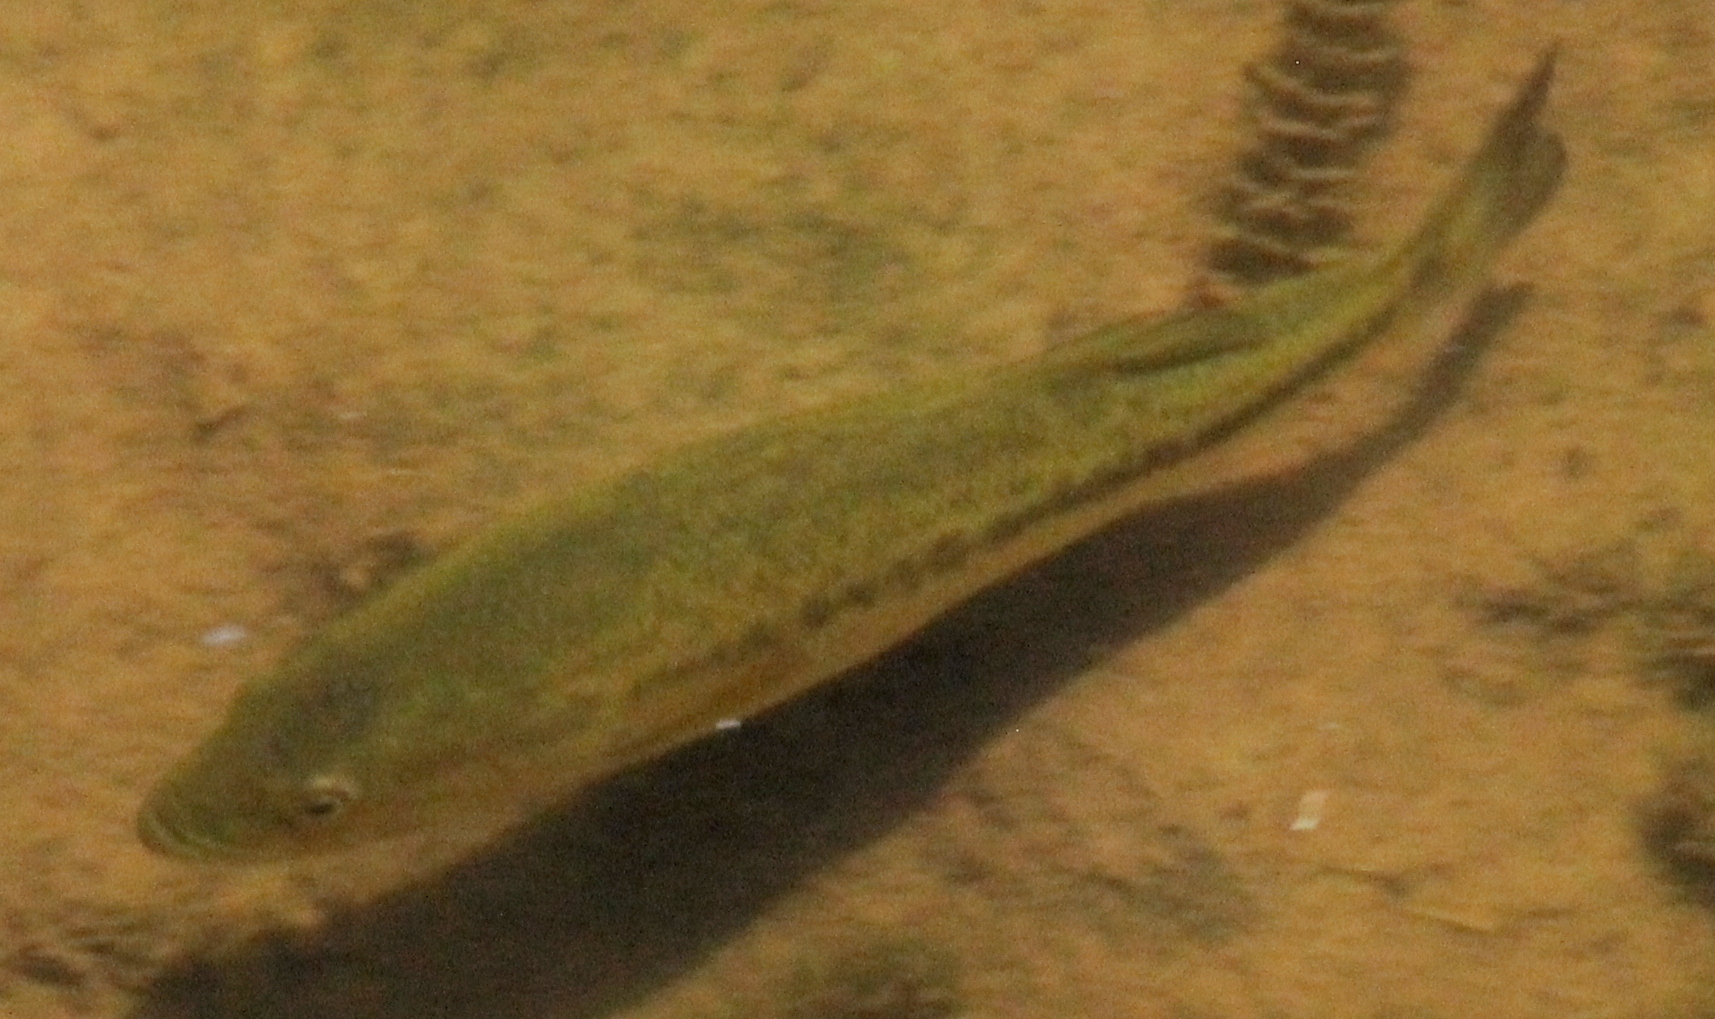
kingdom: Animalia
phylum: Chordata
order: Perciformes
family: Centrarchidae
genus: Micropterus
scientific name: Micropterus
